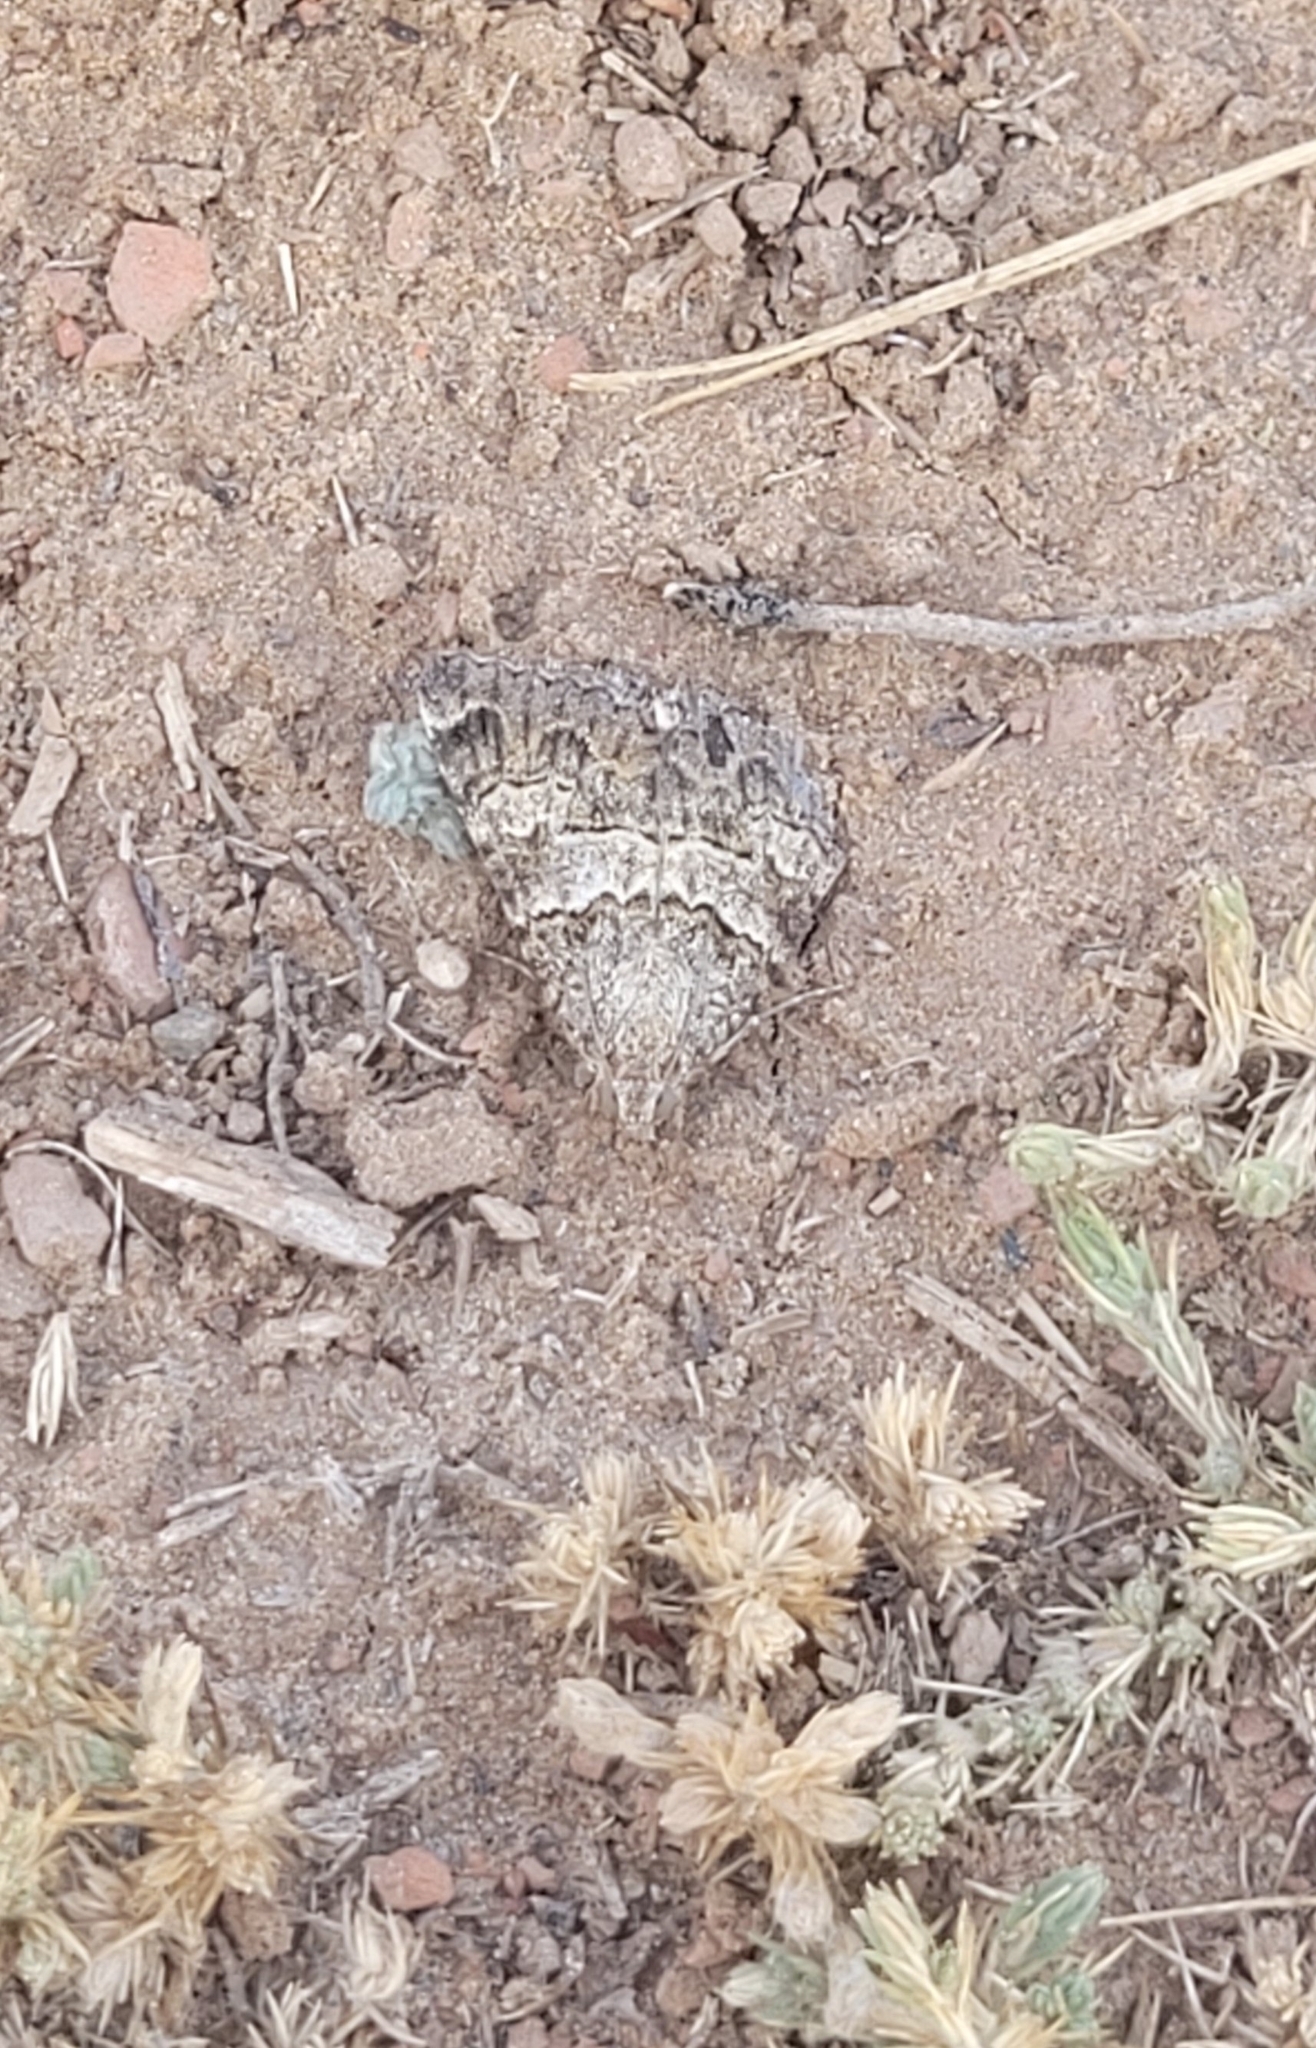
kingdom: Animalia
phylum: Arthropoda
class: Insecta
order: Lepidoptera
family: Erebidae
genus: Drasteria
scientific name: Drasteria flexuosa
